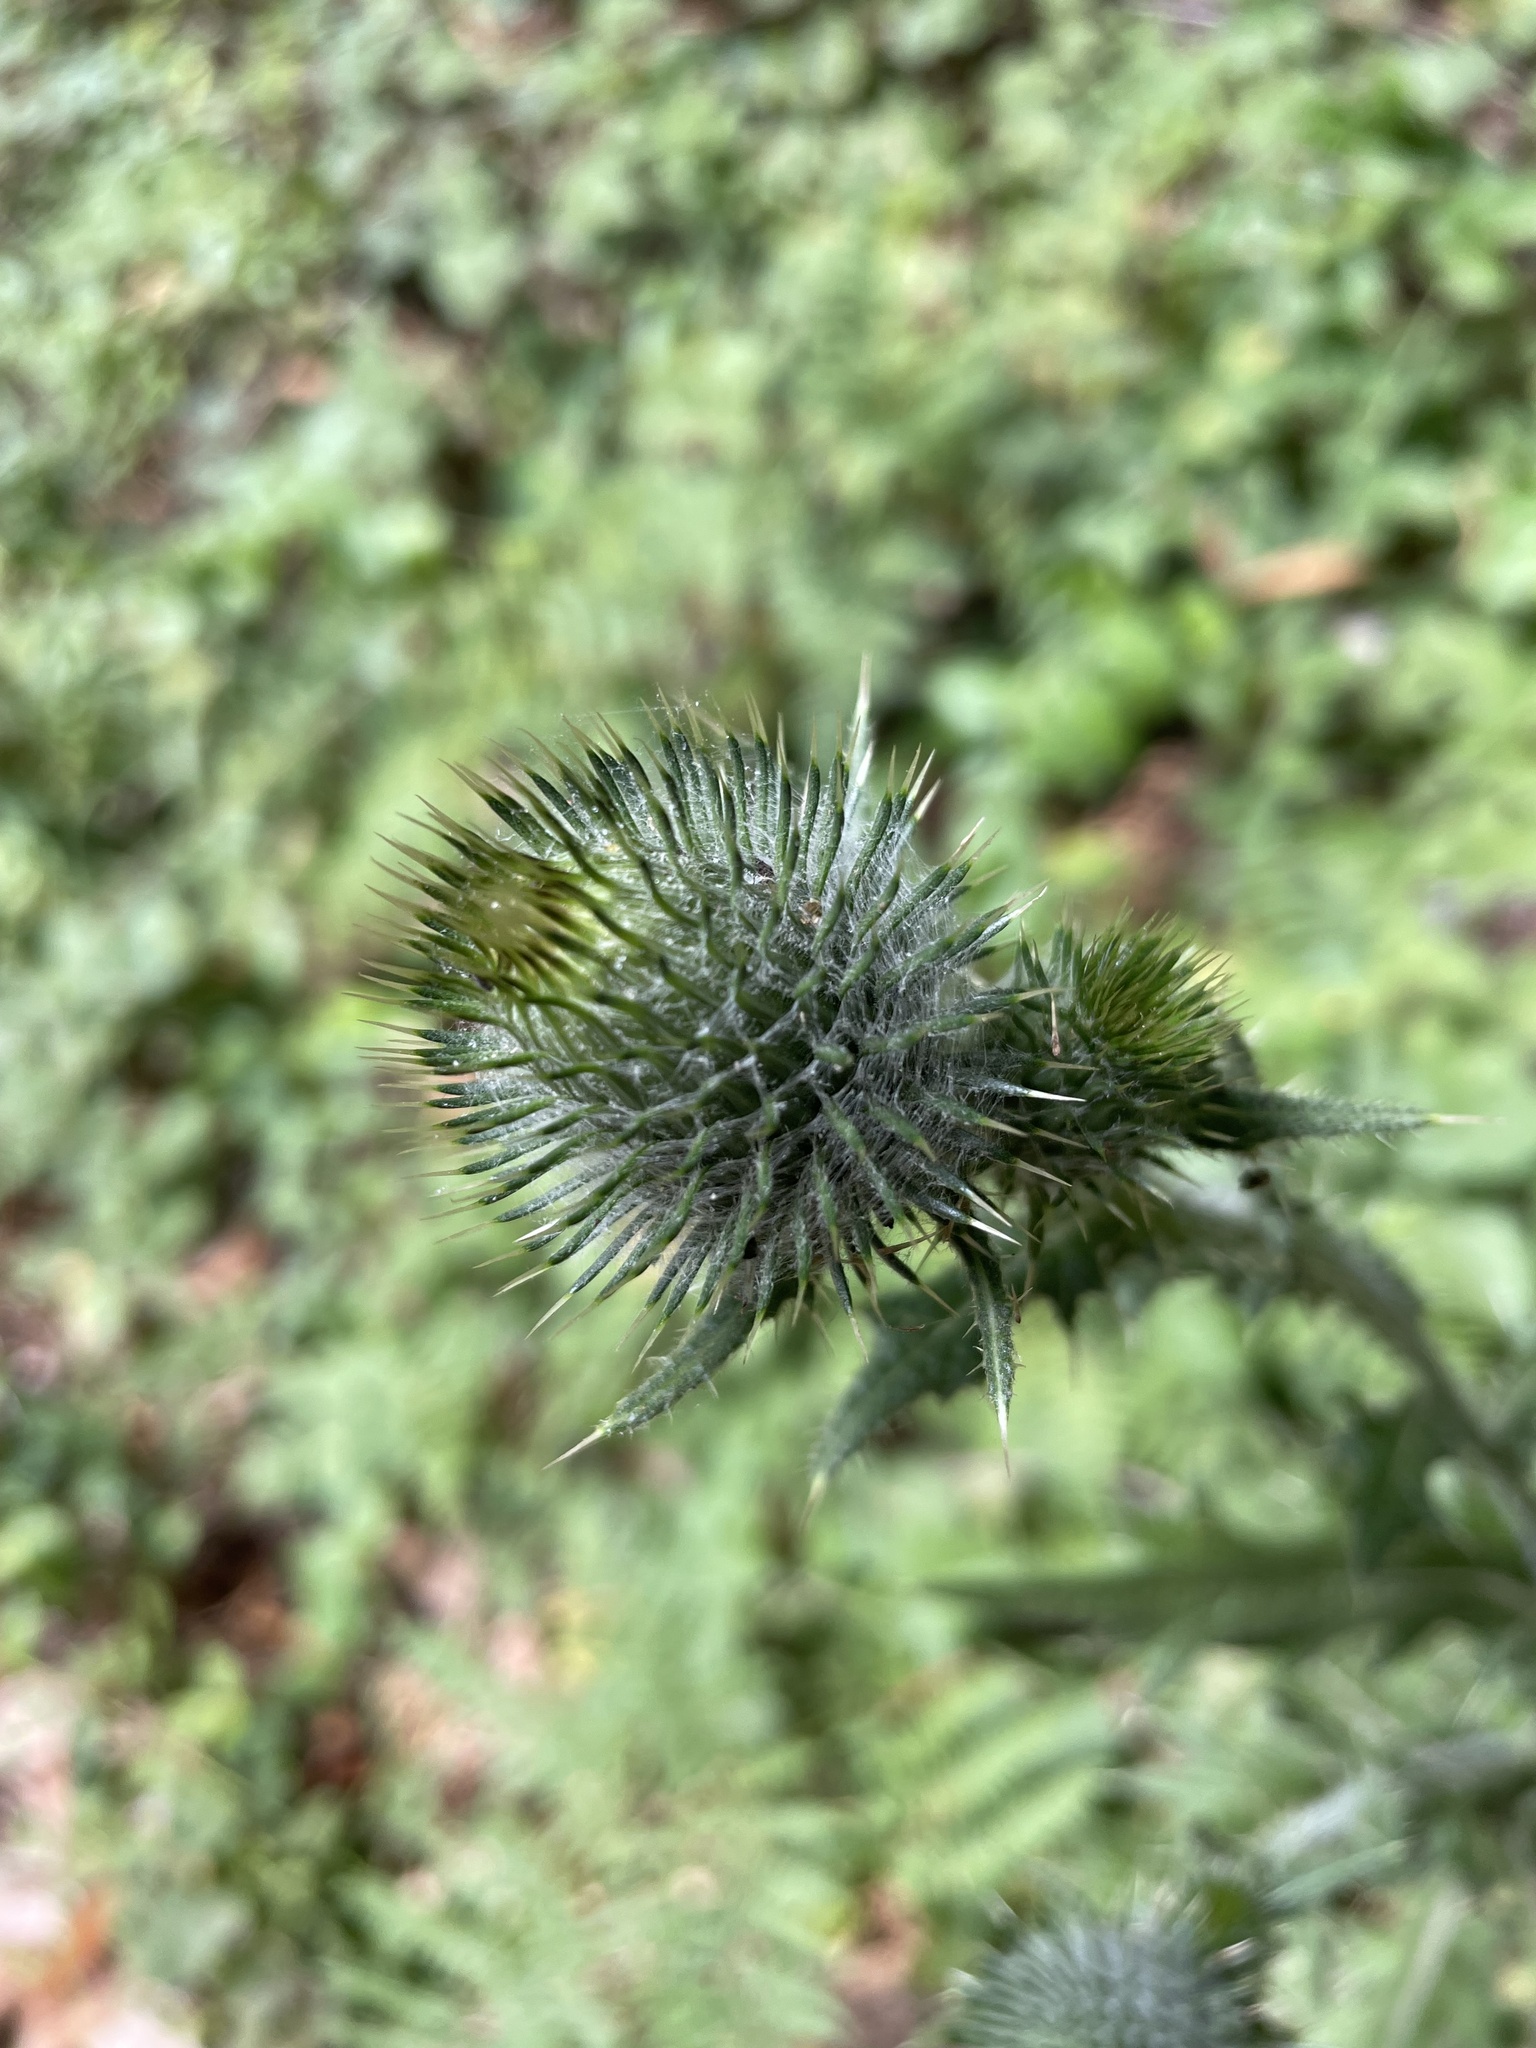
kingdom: Plantae
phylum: Tracheophyta
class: Magnoliopsida
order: Asterales
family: Asteraceae
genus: Cirsium
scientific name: Cirsium vulgare
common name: Bull thistle
